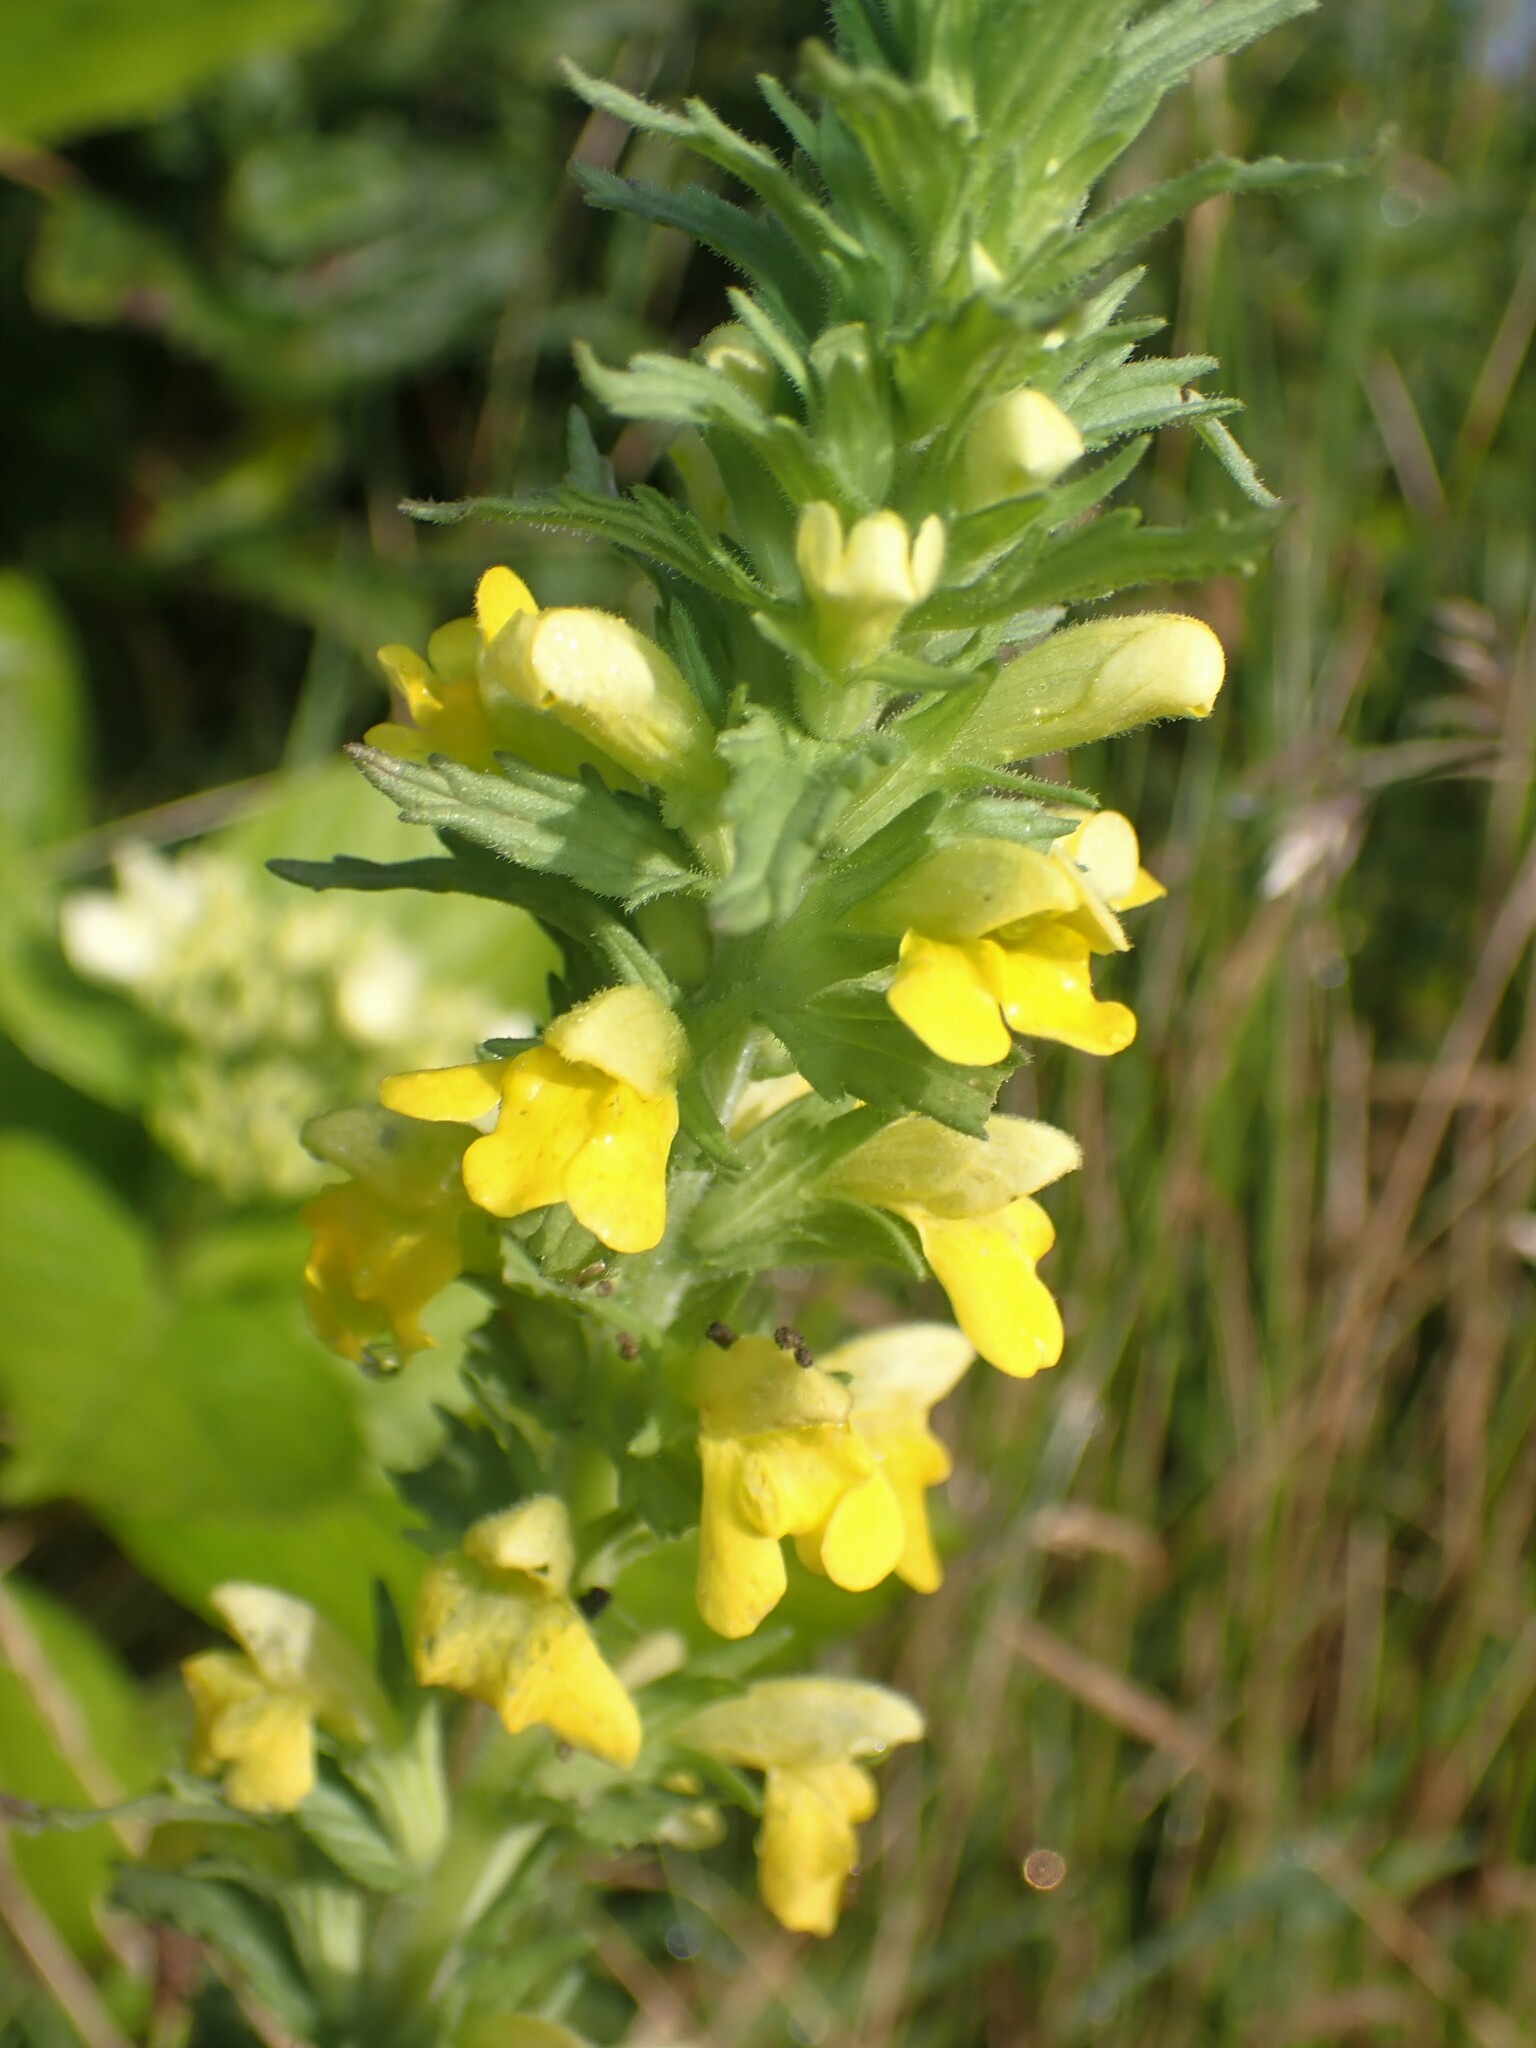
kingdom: Plantae
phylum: Tracheophyta
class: Magnoliopsida
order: Lamiales
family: Orobanchaceae
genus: Bellardia
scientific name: Bellardia viscosa
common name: Sticky parentucellia
